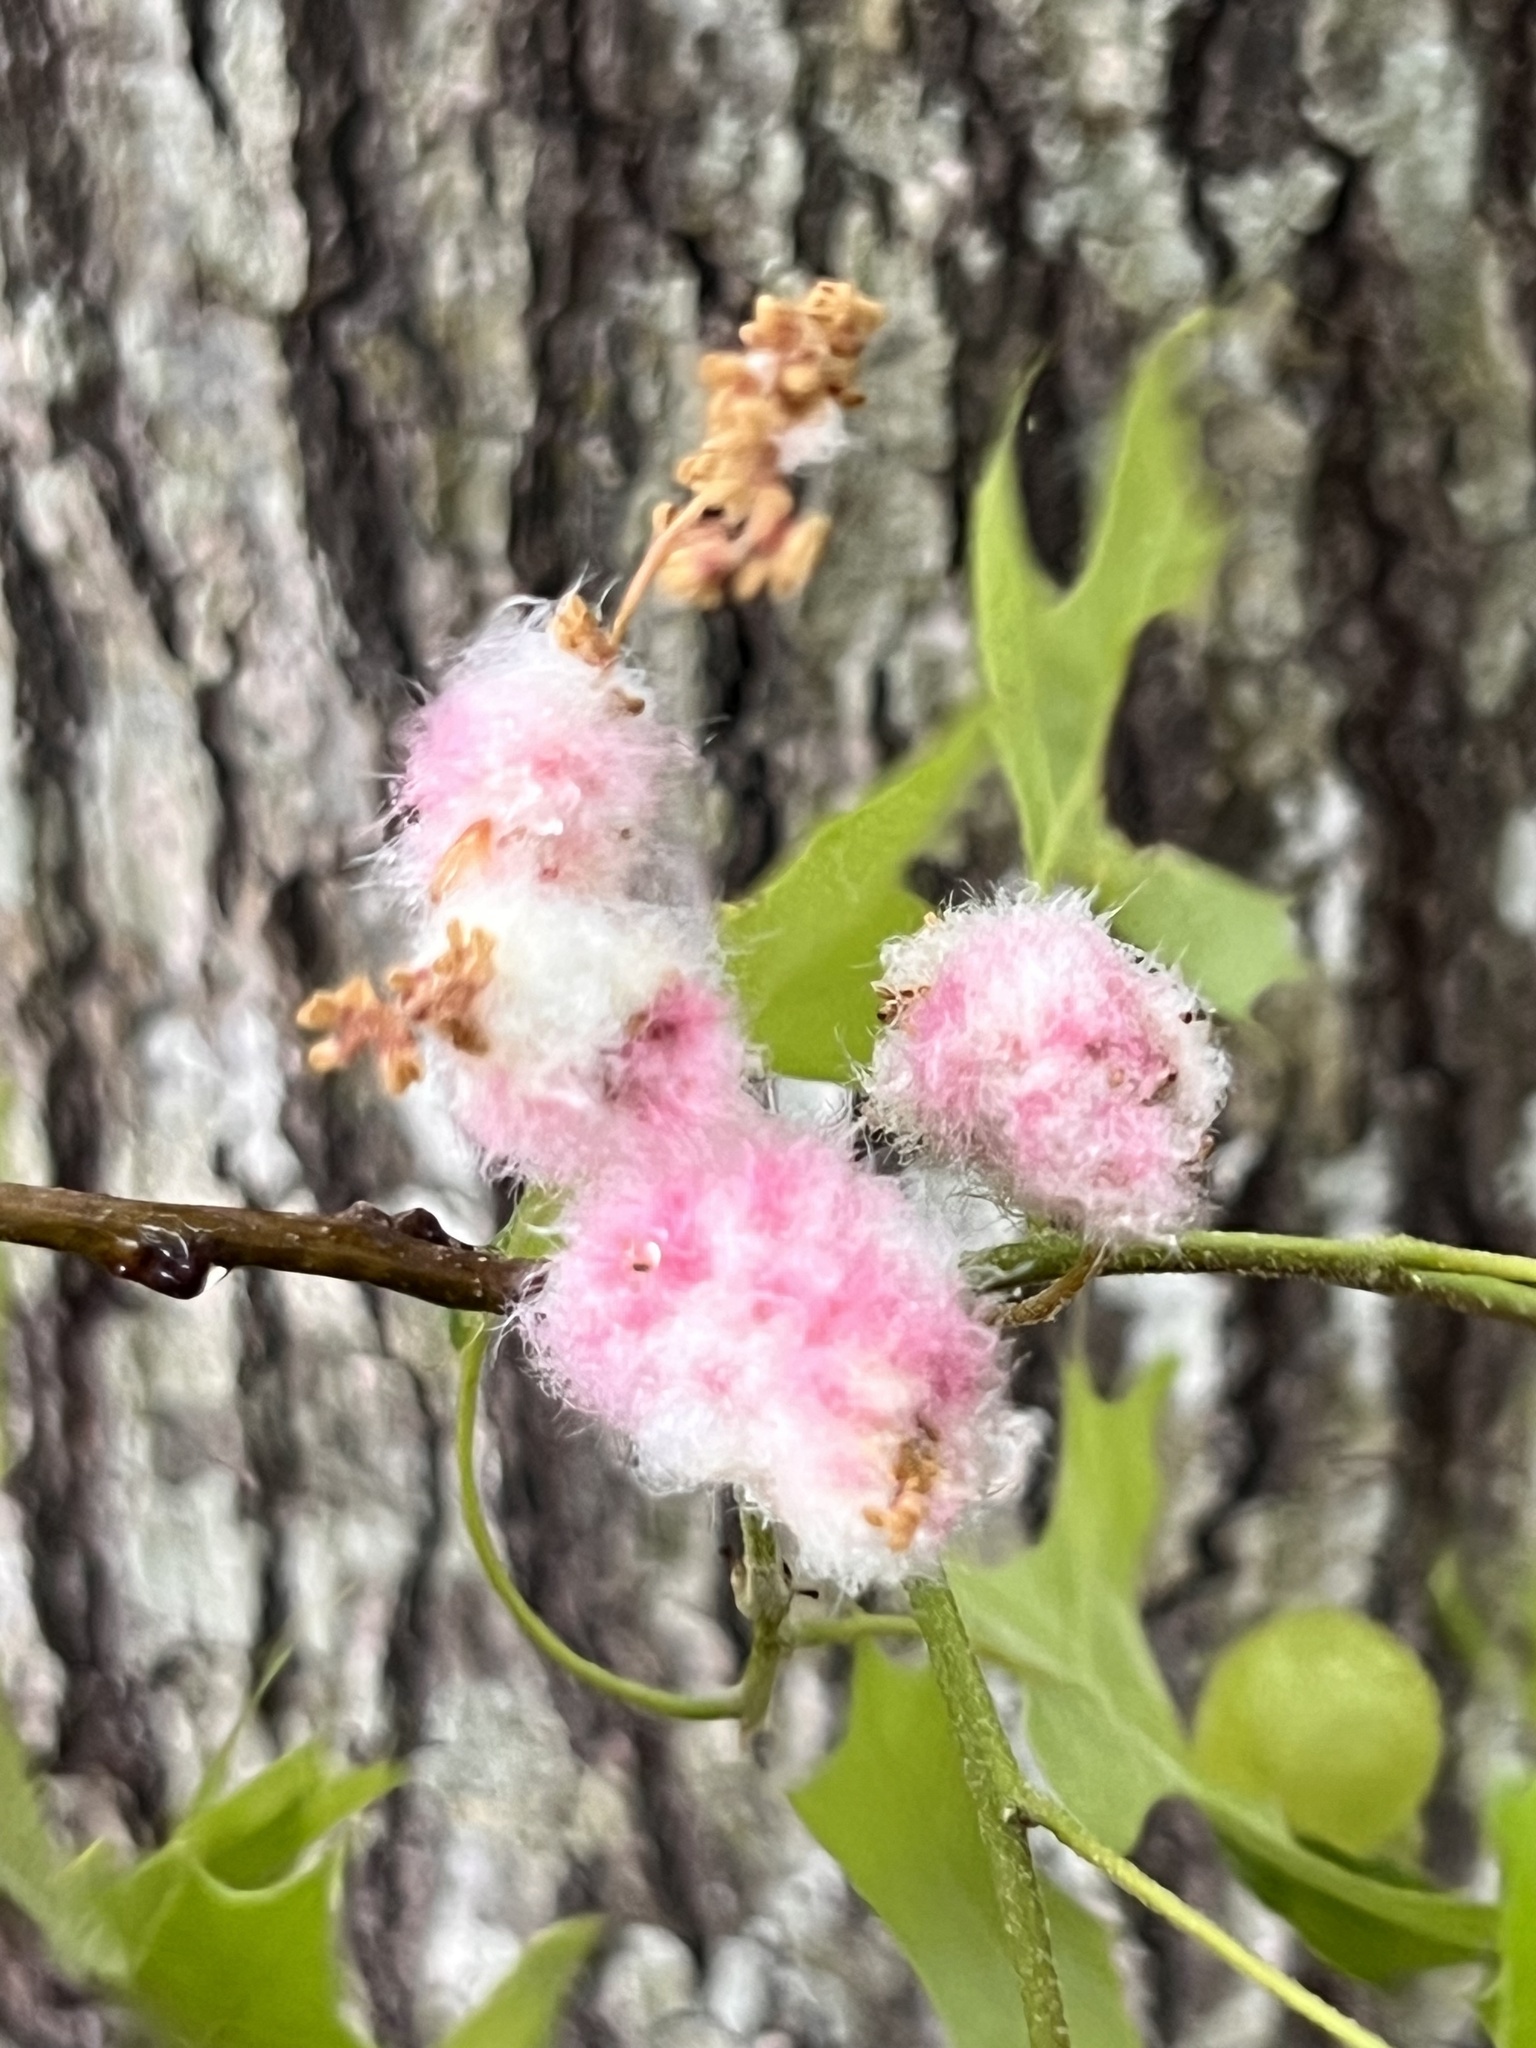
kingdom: Animalia
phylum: Arthropoda
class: Insecta
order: Hymenoptera
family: Cynipidae
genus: Callirhytis
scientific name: Callirhytis
